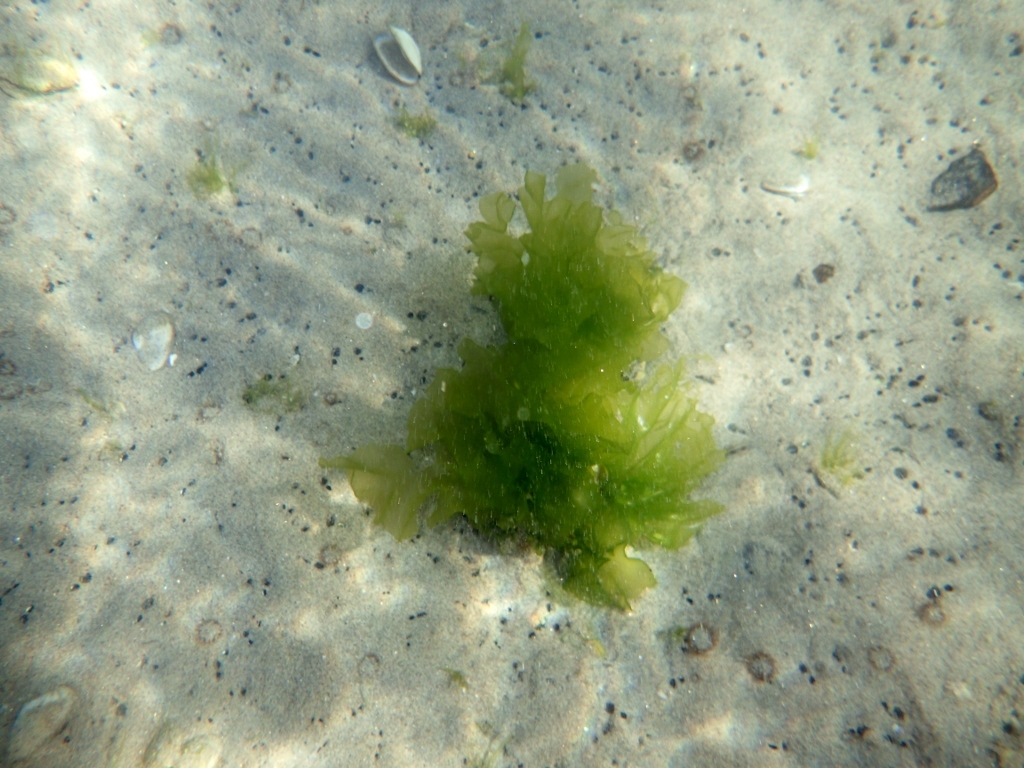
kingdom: Plantae
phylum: Chlorophyta
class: Ulvophyceae
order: Ulvales
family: Ulvaceae
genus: Ulva
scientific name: Ulva
